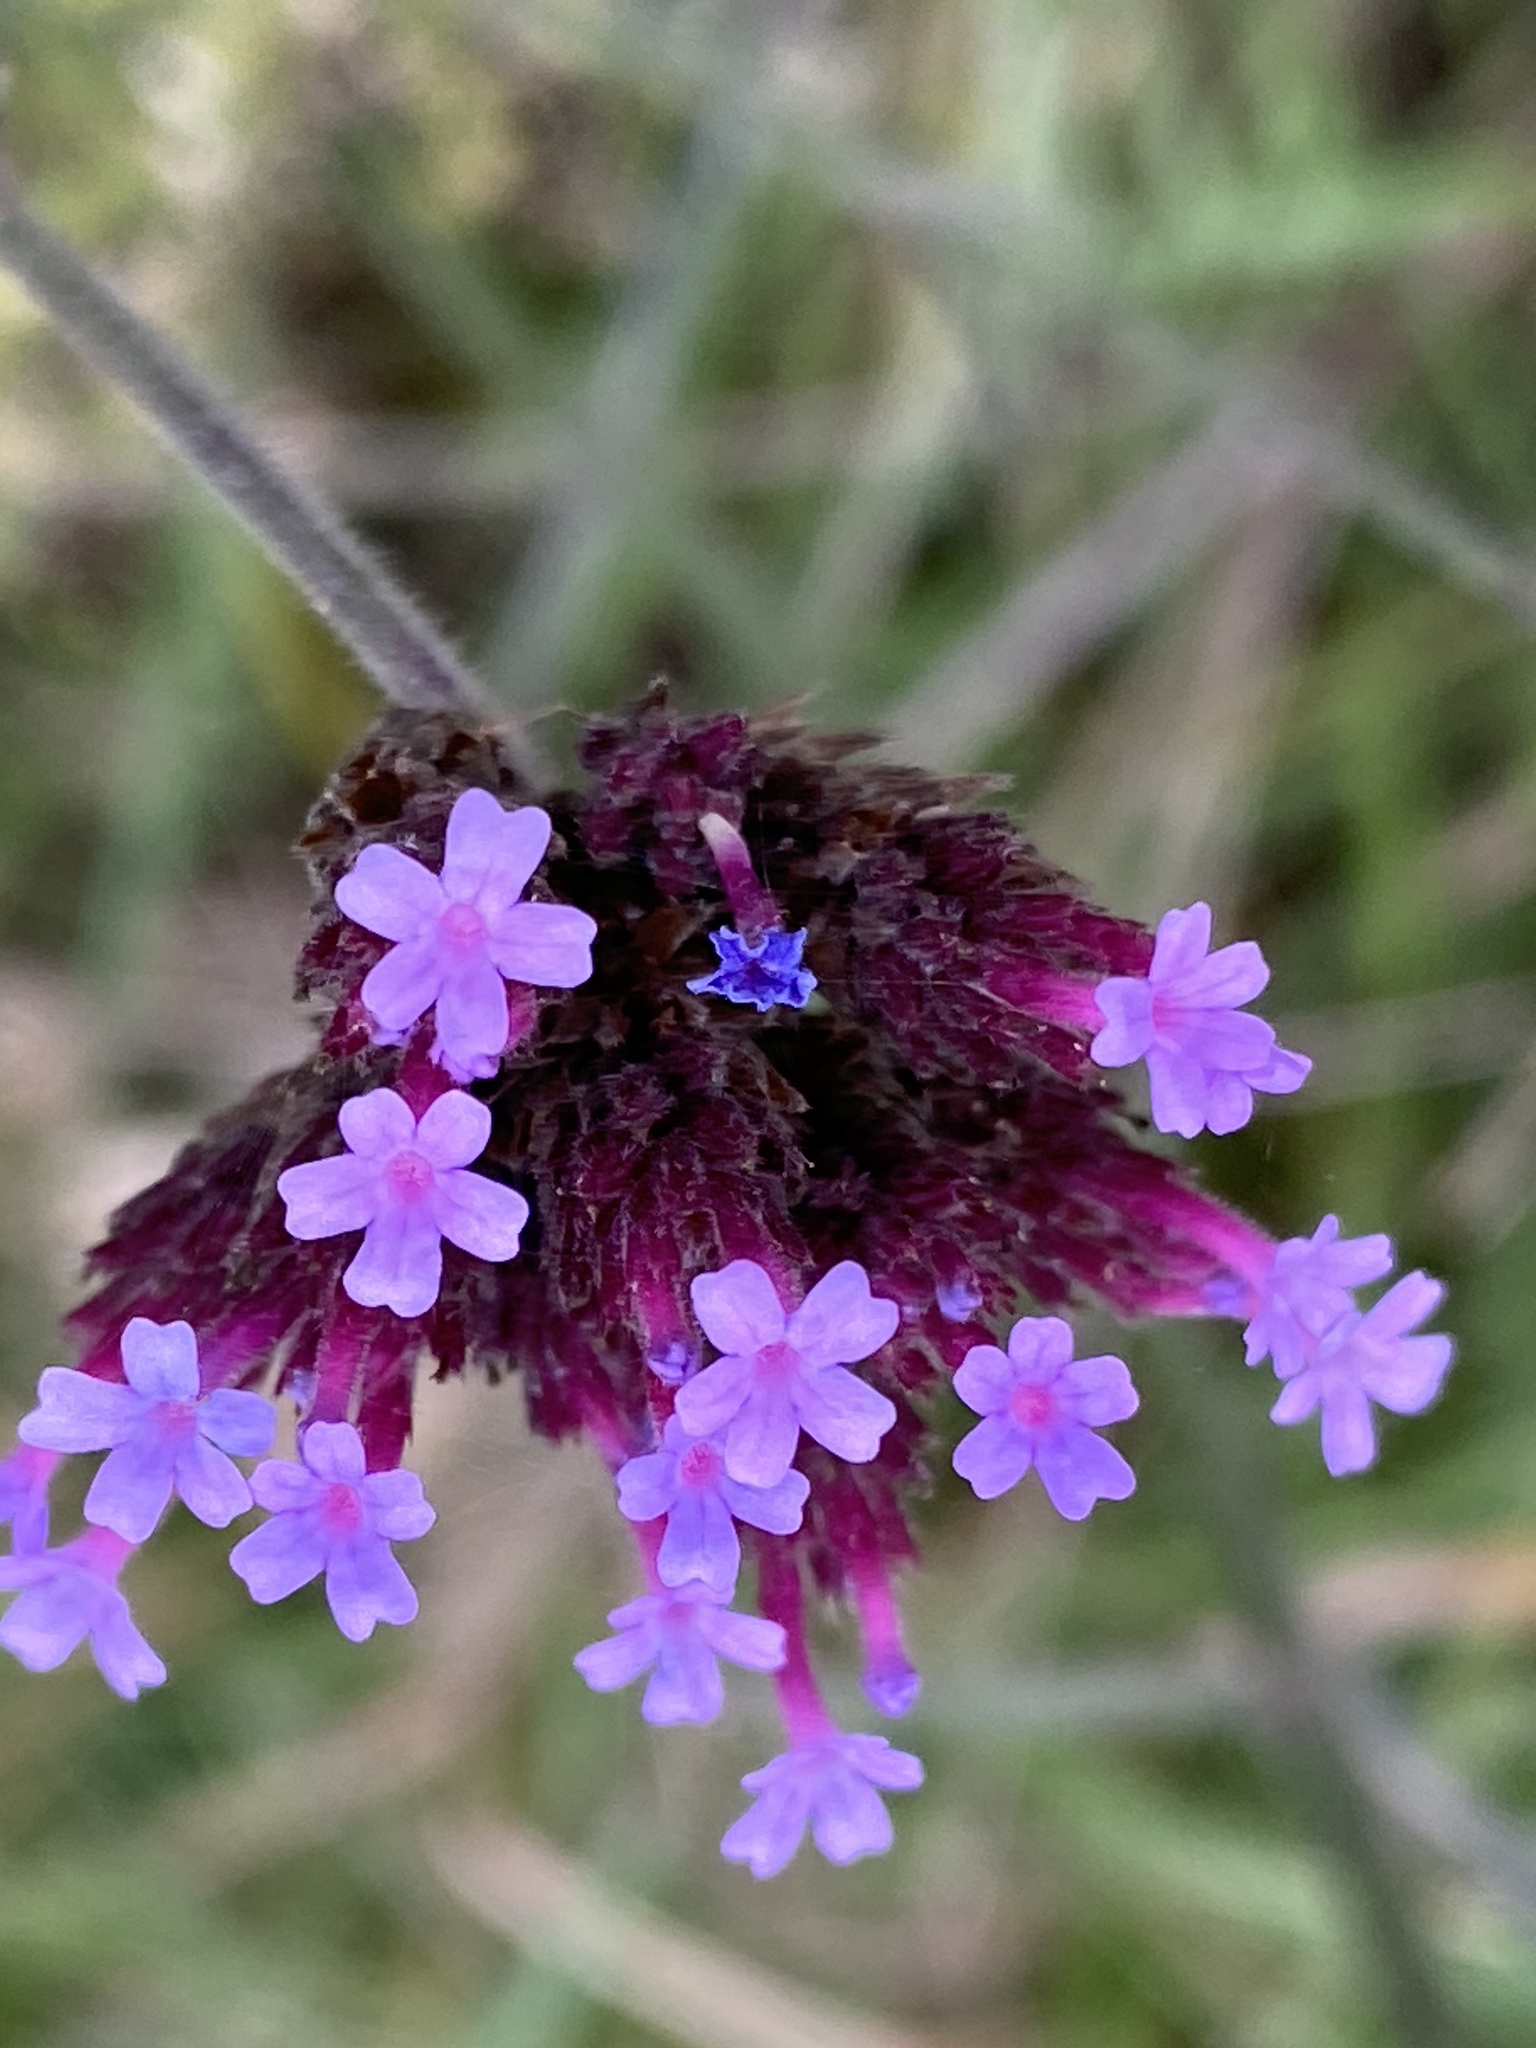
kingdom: Plantae
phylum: Tracheophyta
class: Magnoliopsida
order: Lamiales
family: Verbenaceae
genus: Verbena
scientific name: Verbena bonariensis
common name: Purpletop vervain
